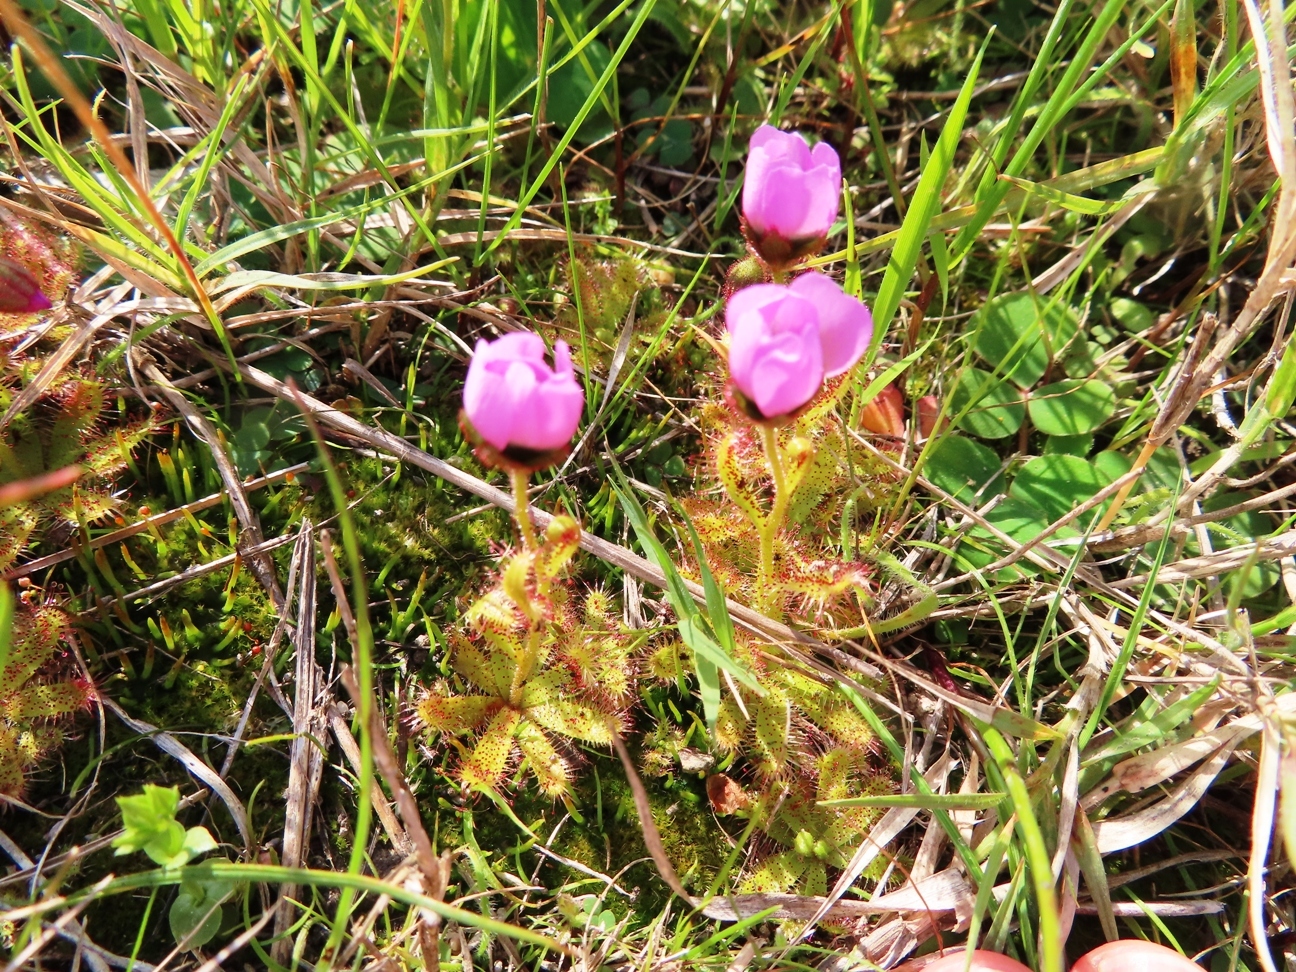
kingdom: Plantae
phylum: Tracheophyta
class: Magnoliopsida
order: Caryophyllales
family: Droseraceae
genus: Drosera
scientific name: Drosera cistiflora
